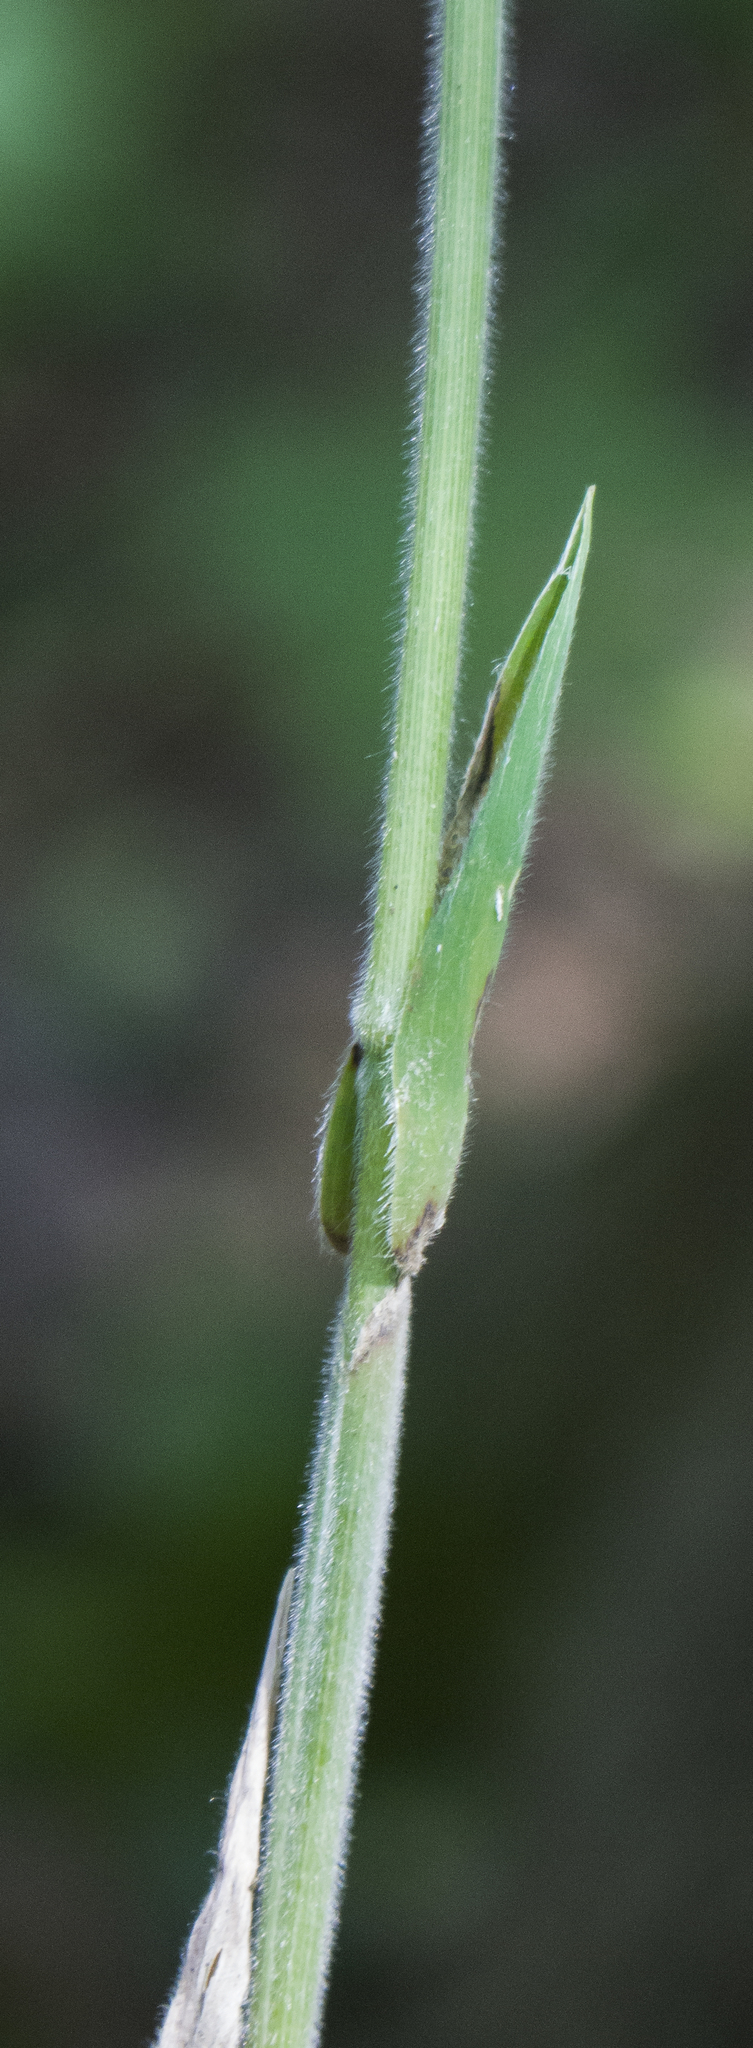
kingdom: Plantae
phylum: Tracheophyta
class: Liliopsida
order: Poales
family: Poaceae
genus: Brachyelytrum
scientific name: Brachyelytrum aristosum
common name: Northern shorthusk
